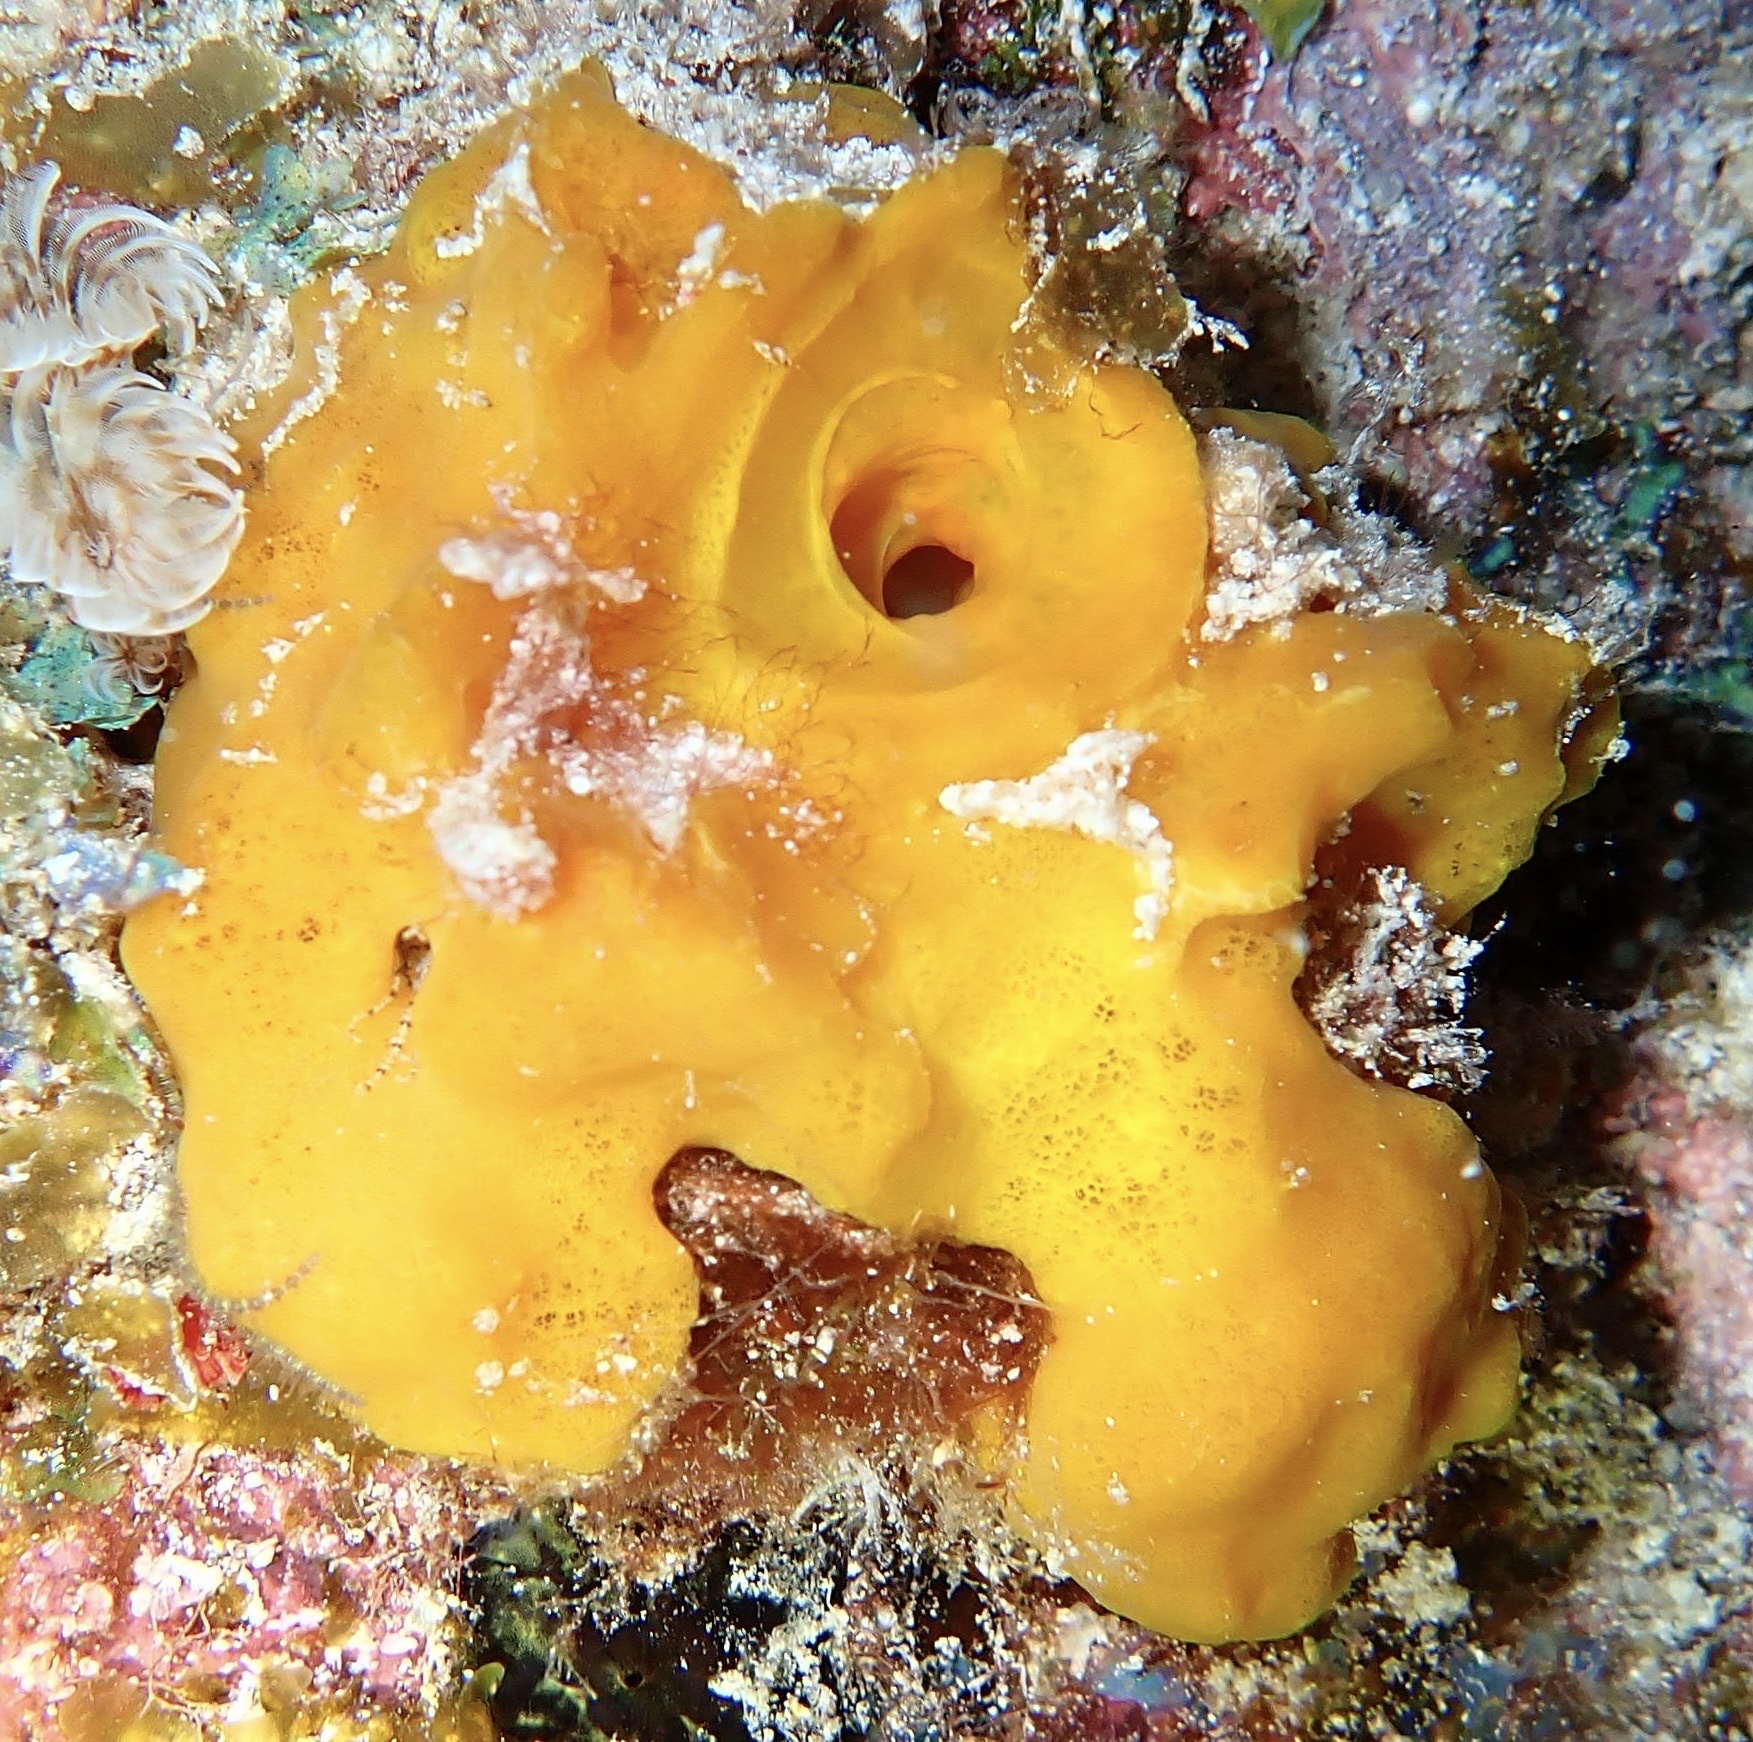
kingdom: Animalia
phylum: Porifera
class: Demospongiae
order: Haplosclerida
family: Phloeodictyidae
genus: Siphonodictyon
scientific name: Siphonodictyon coralliphagum
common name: Coral-eating boring sponge
